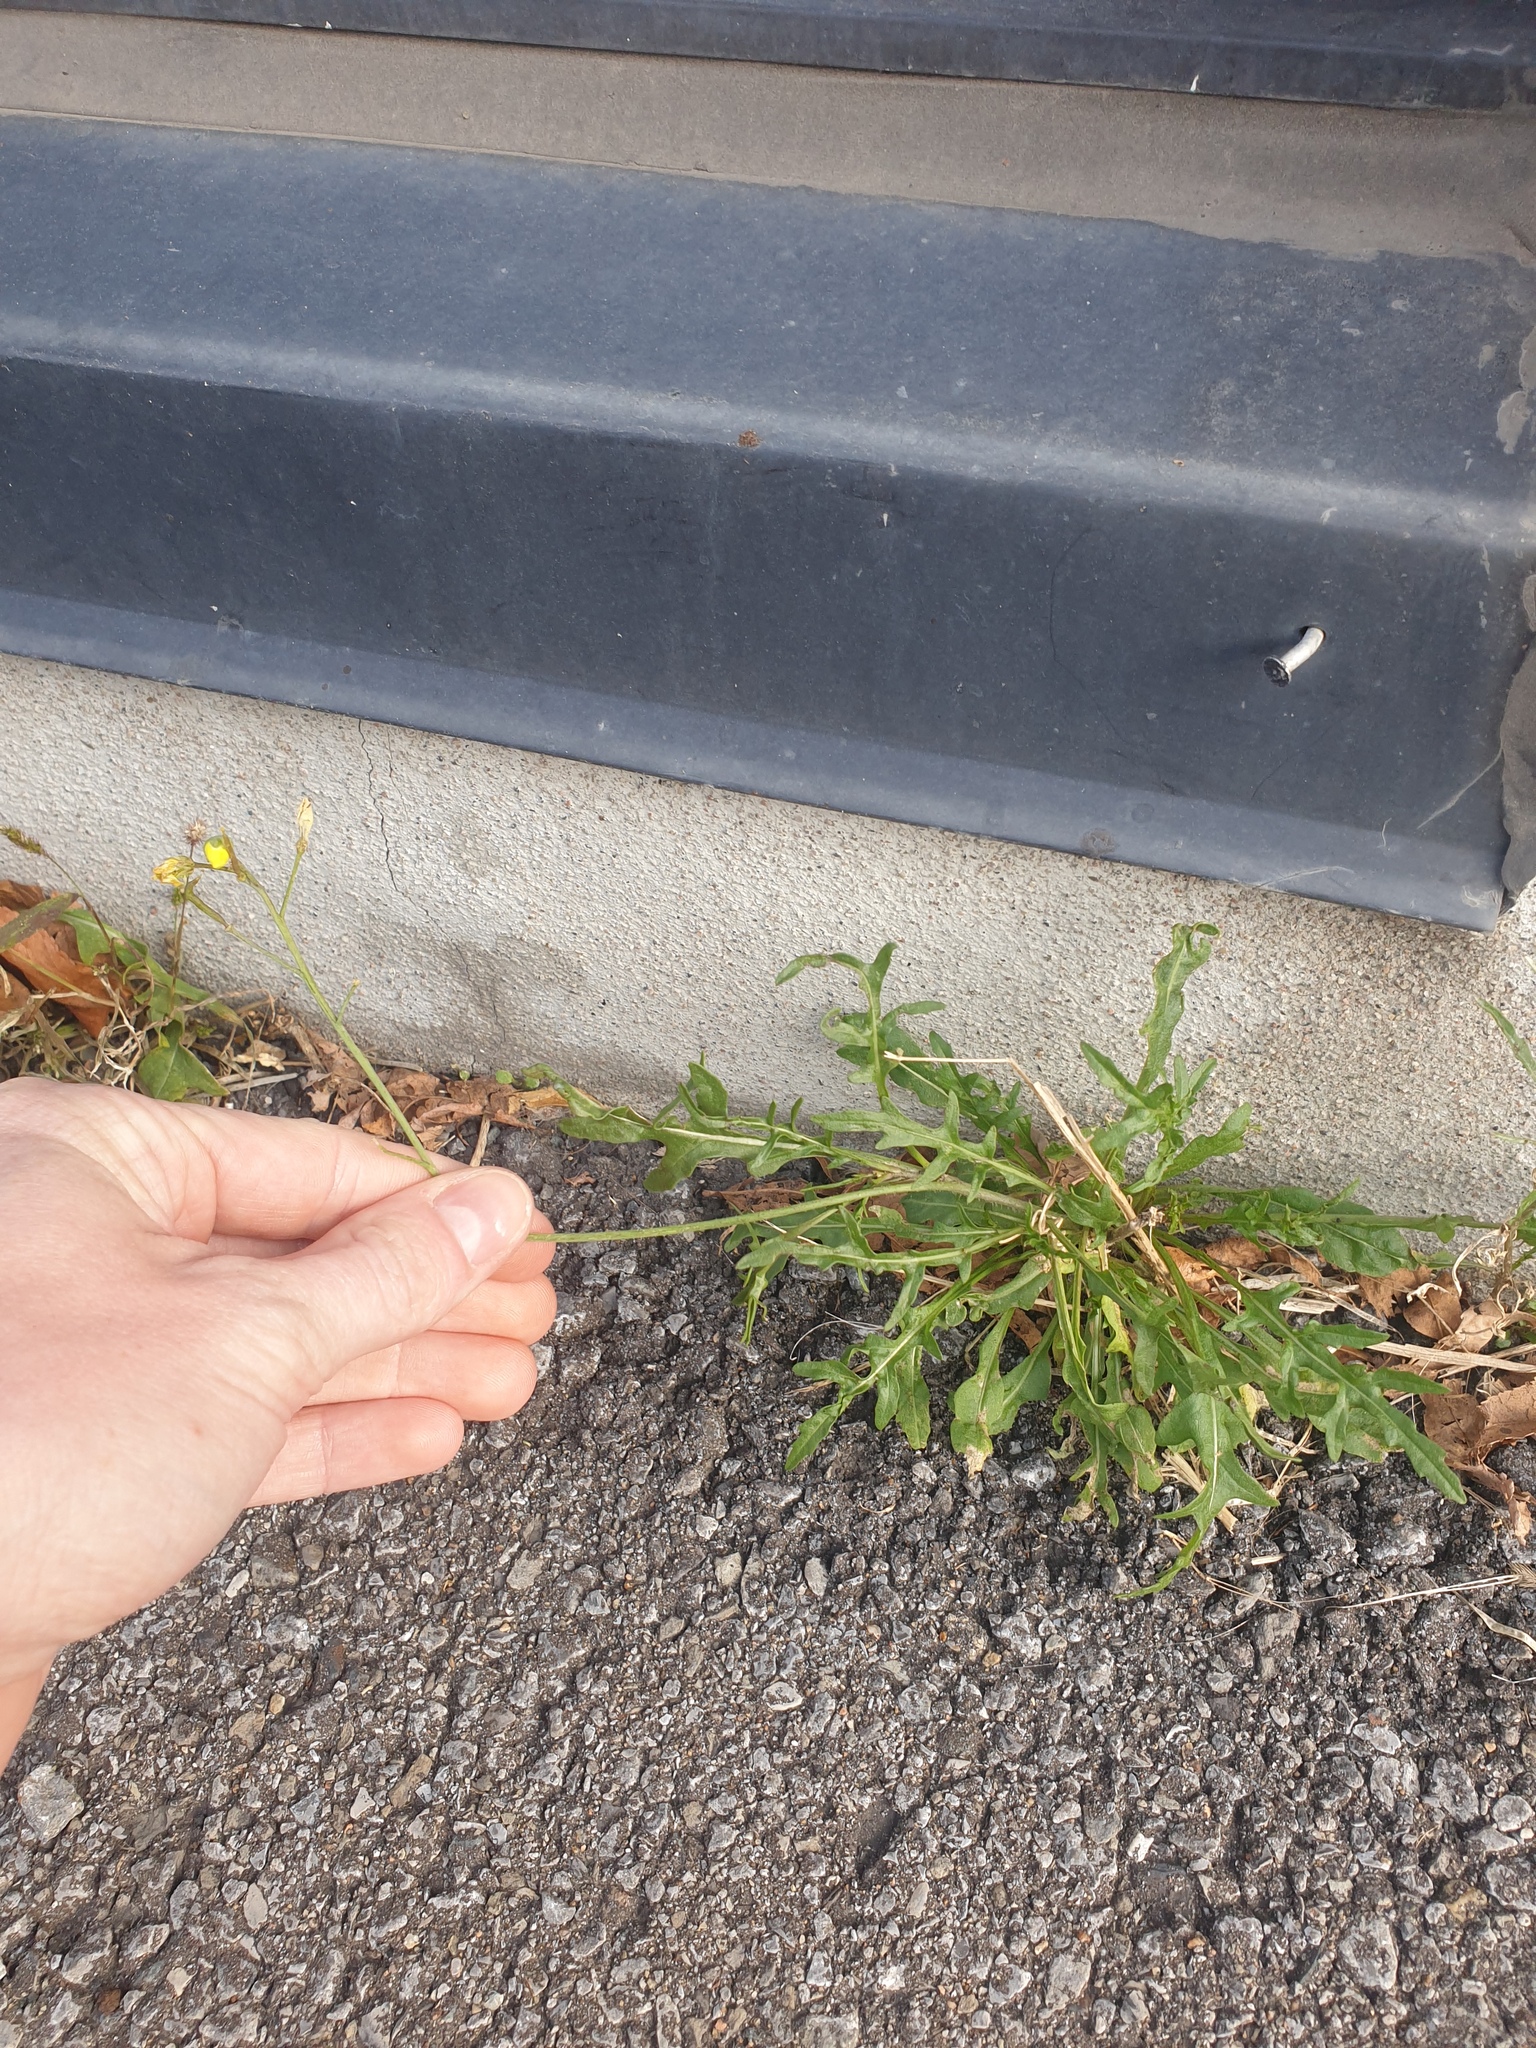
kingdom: Plantae
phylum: Tracheophyta
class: Magnoliopsida
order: Brassicales
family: Brassicaceae
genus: Diplotaxis
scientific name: Diplotaxis tenuifolia
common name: Perennial wall-rocket
